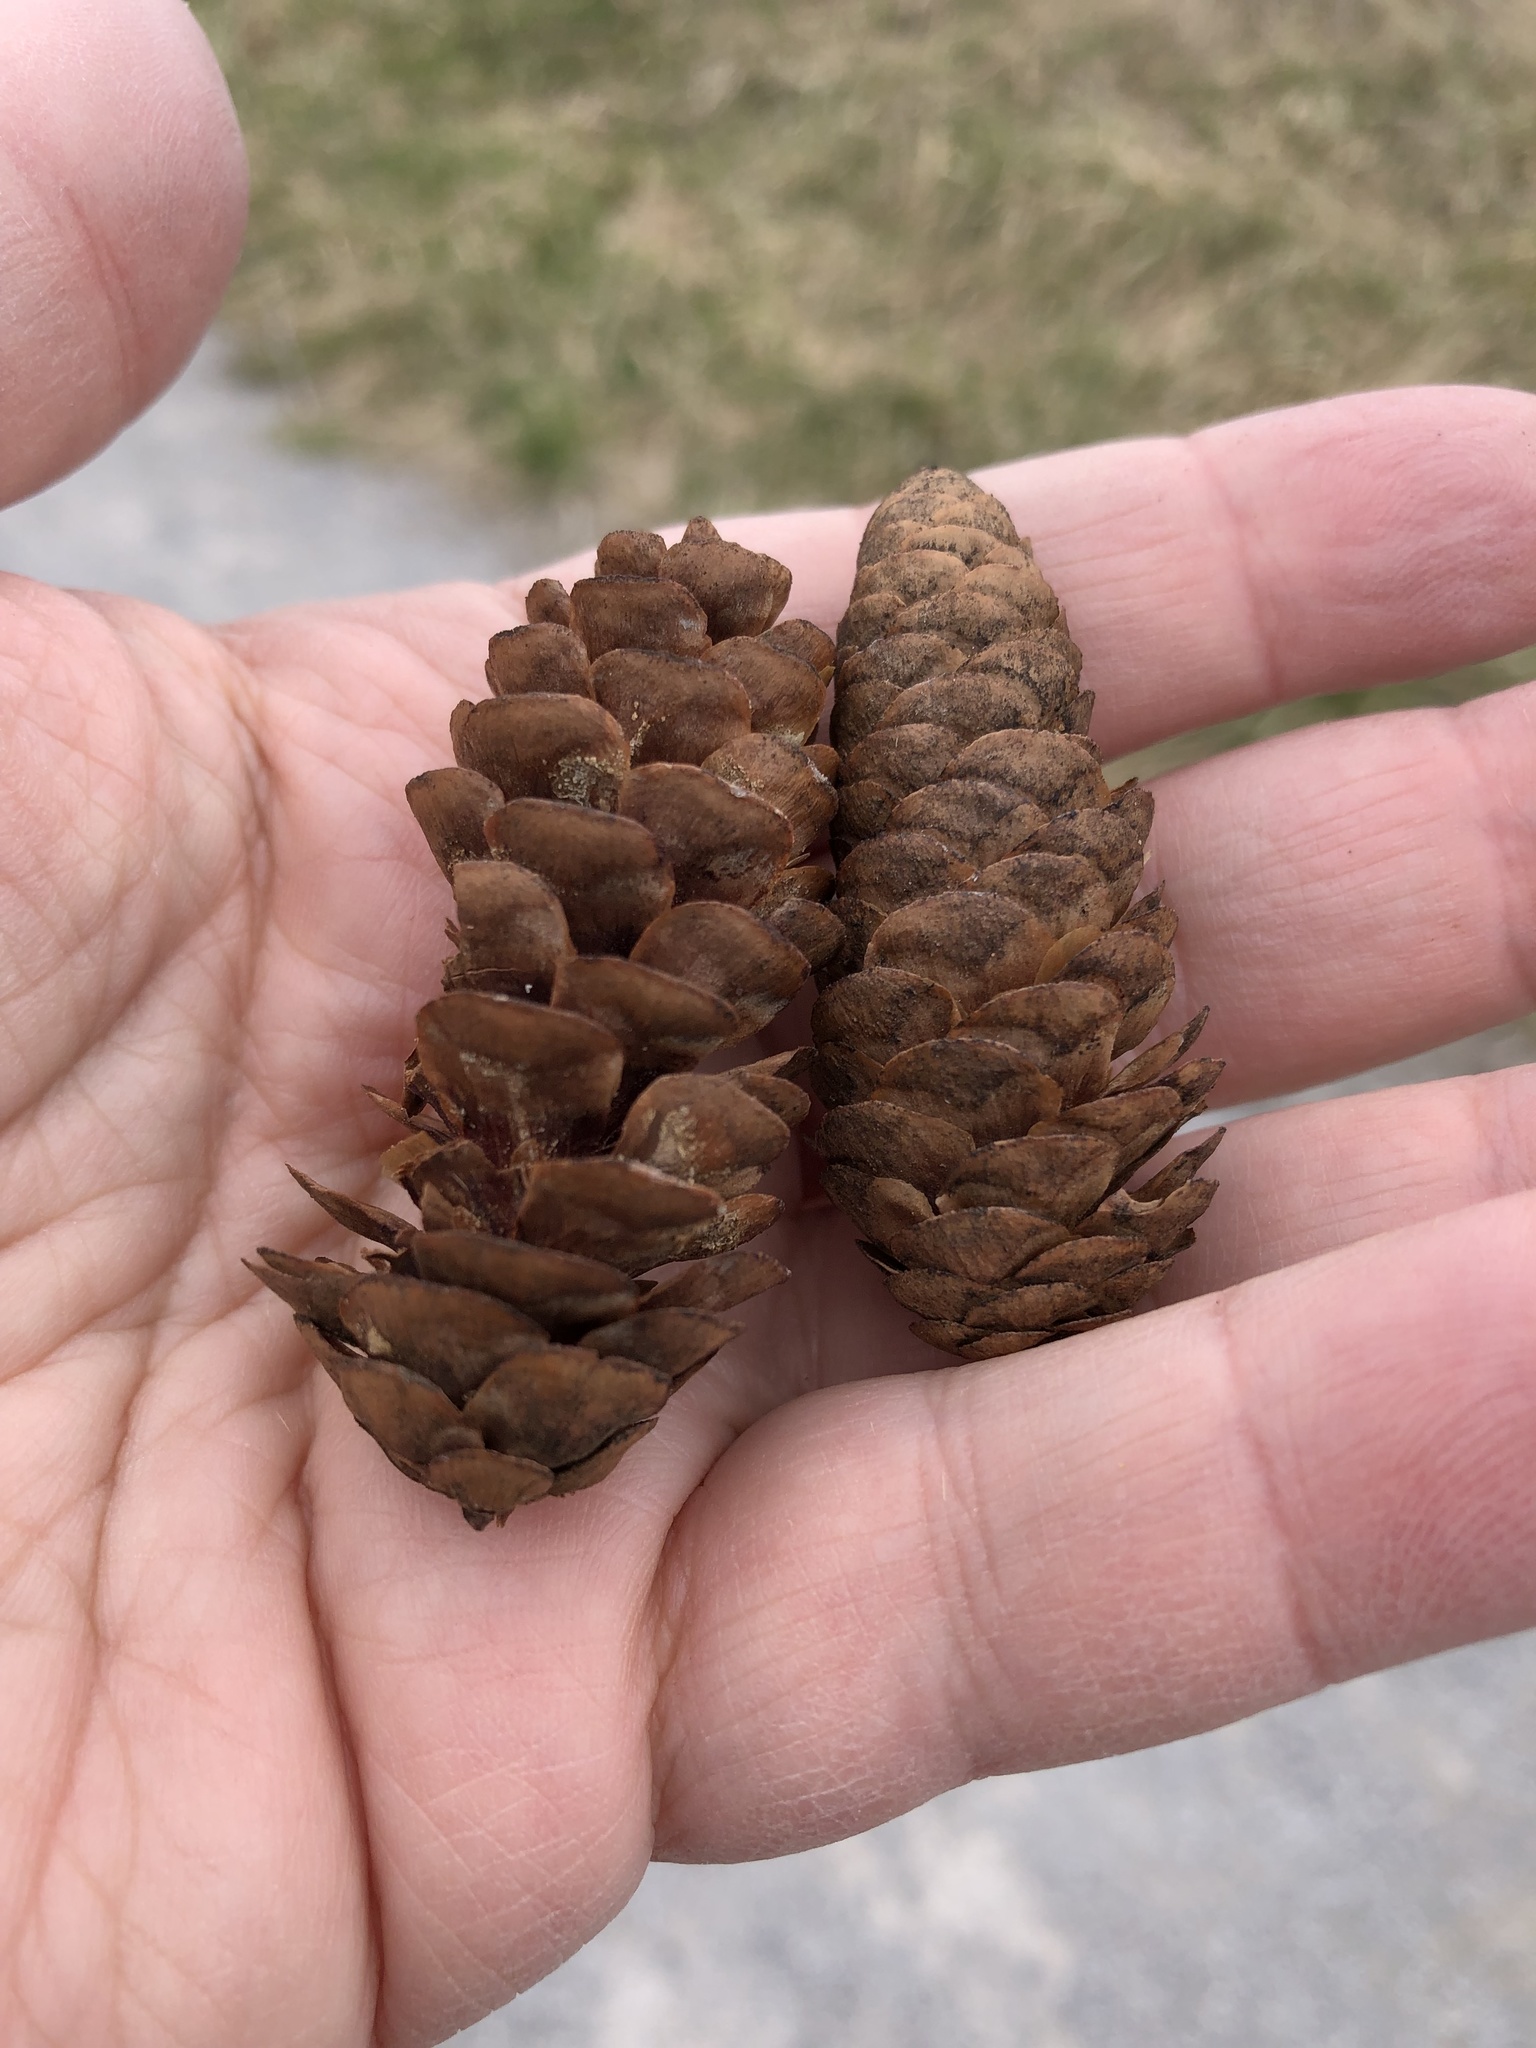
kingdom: Plantae
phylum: Tracheophyta
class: Pinopsida
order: Pinales
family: Pinaceae
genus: Picea
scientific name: Picea glauca
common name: White spruce
